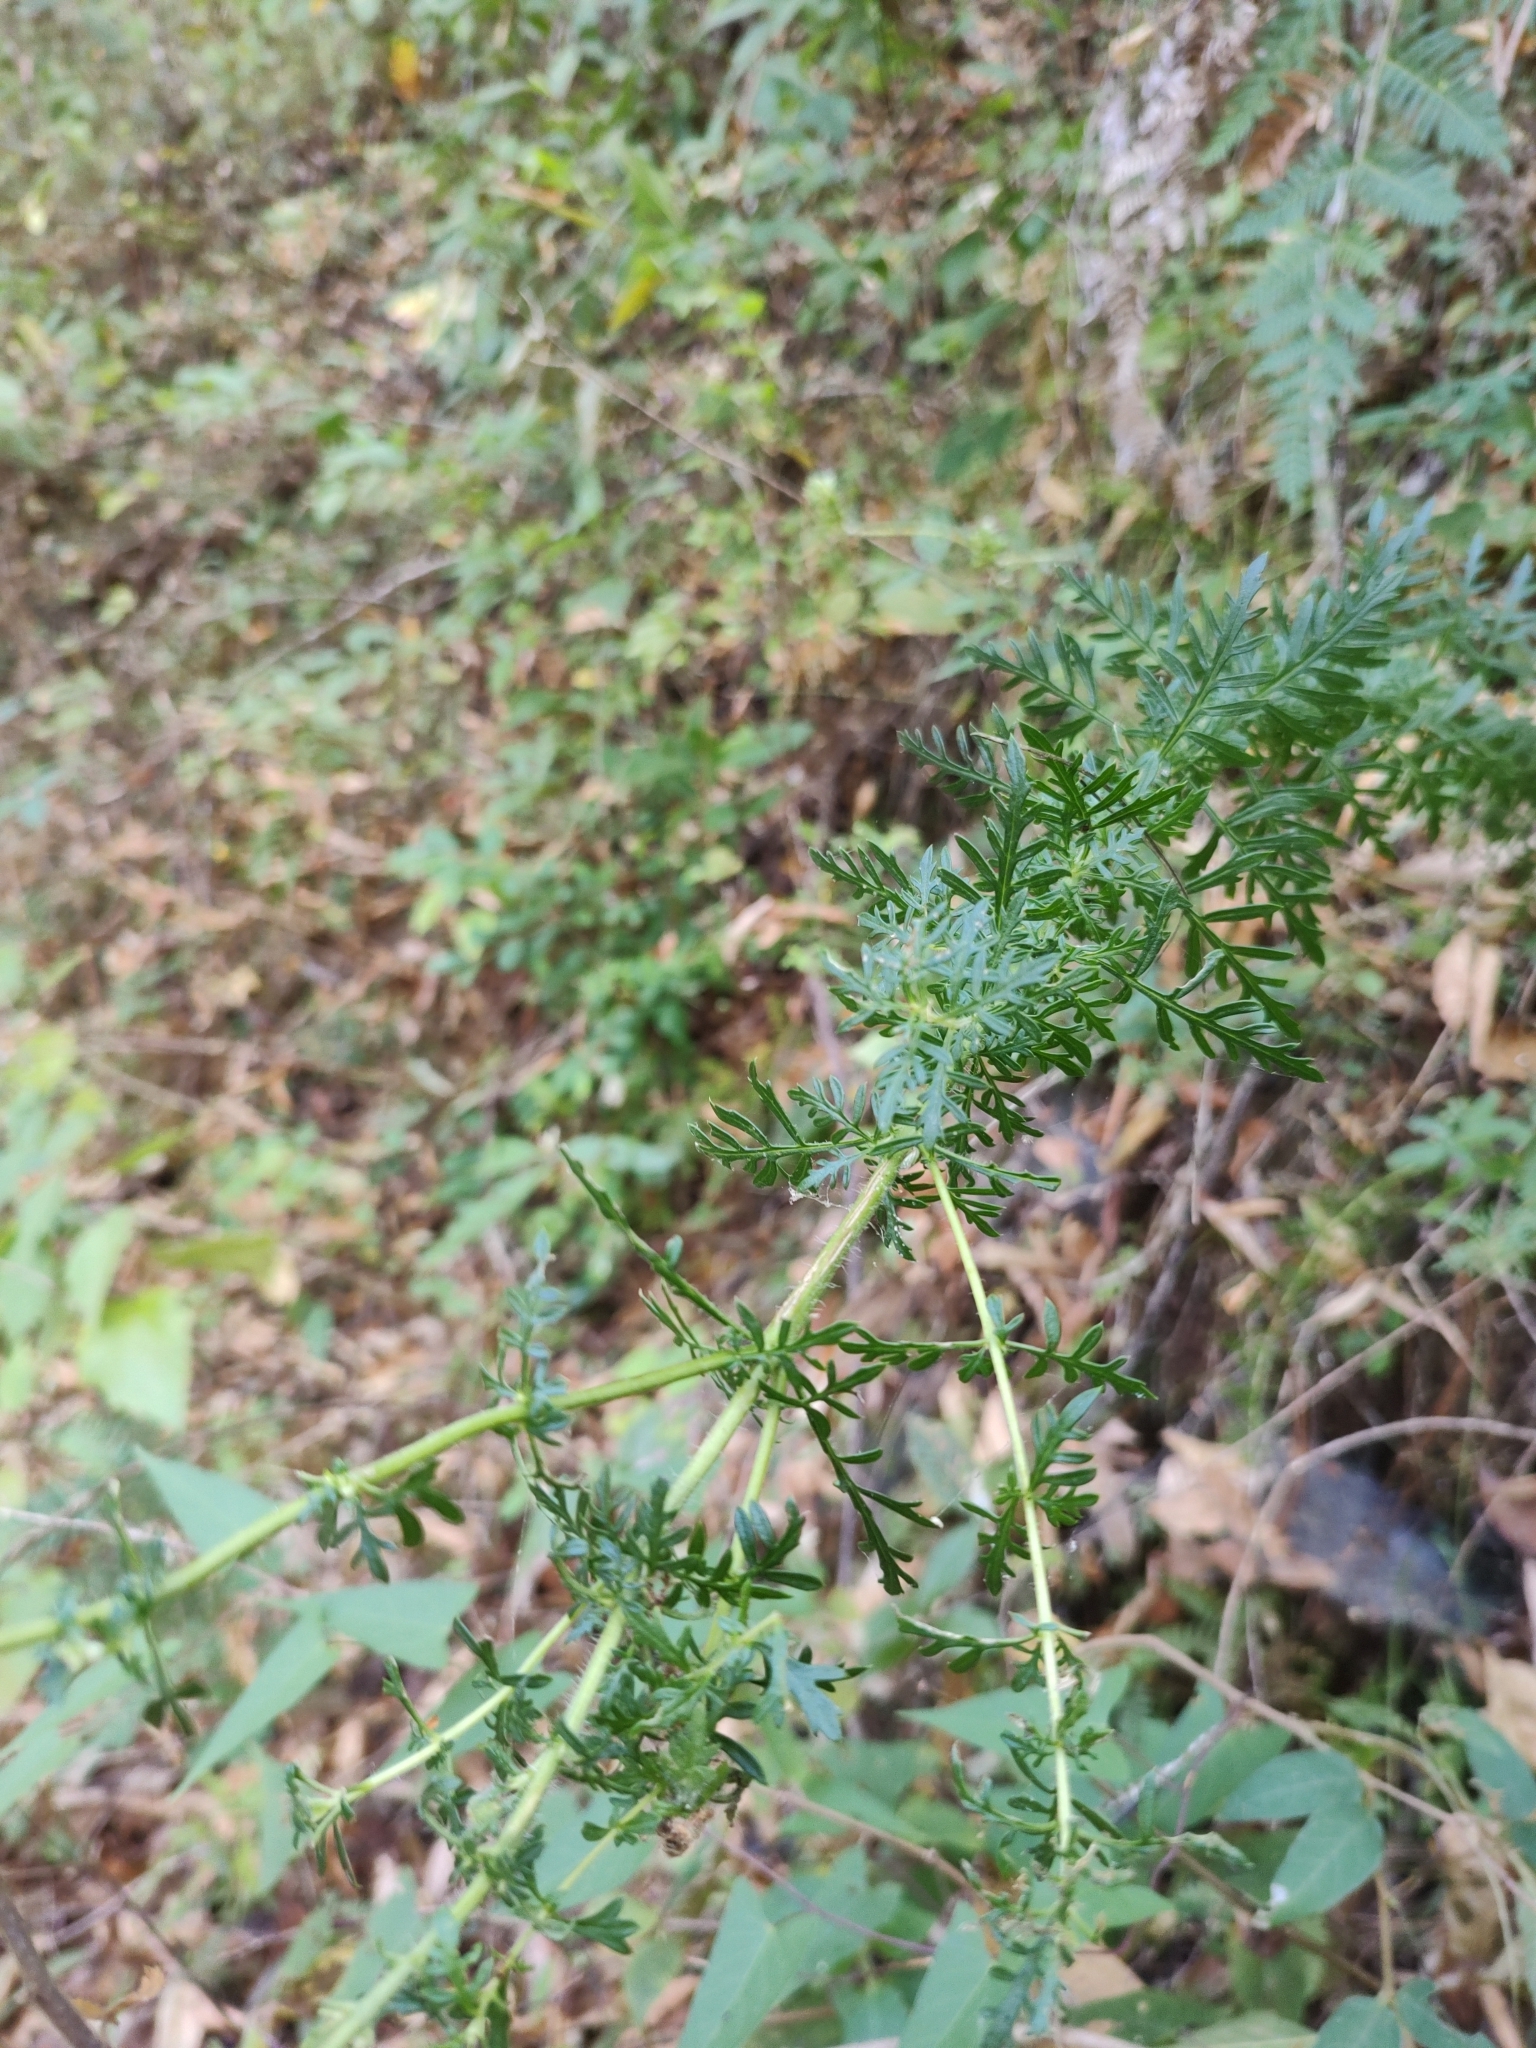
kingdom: Plantae
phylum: Tracheophyta
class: Magnoliopsida
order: Lamiales
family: Orobanchaceae
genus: Lamourouxia
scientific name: Lamourouxia multifida
